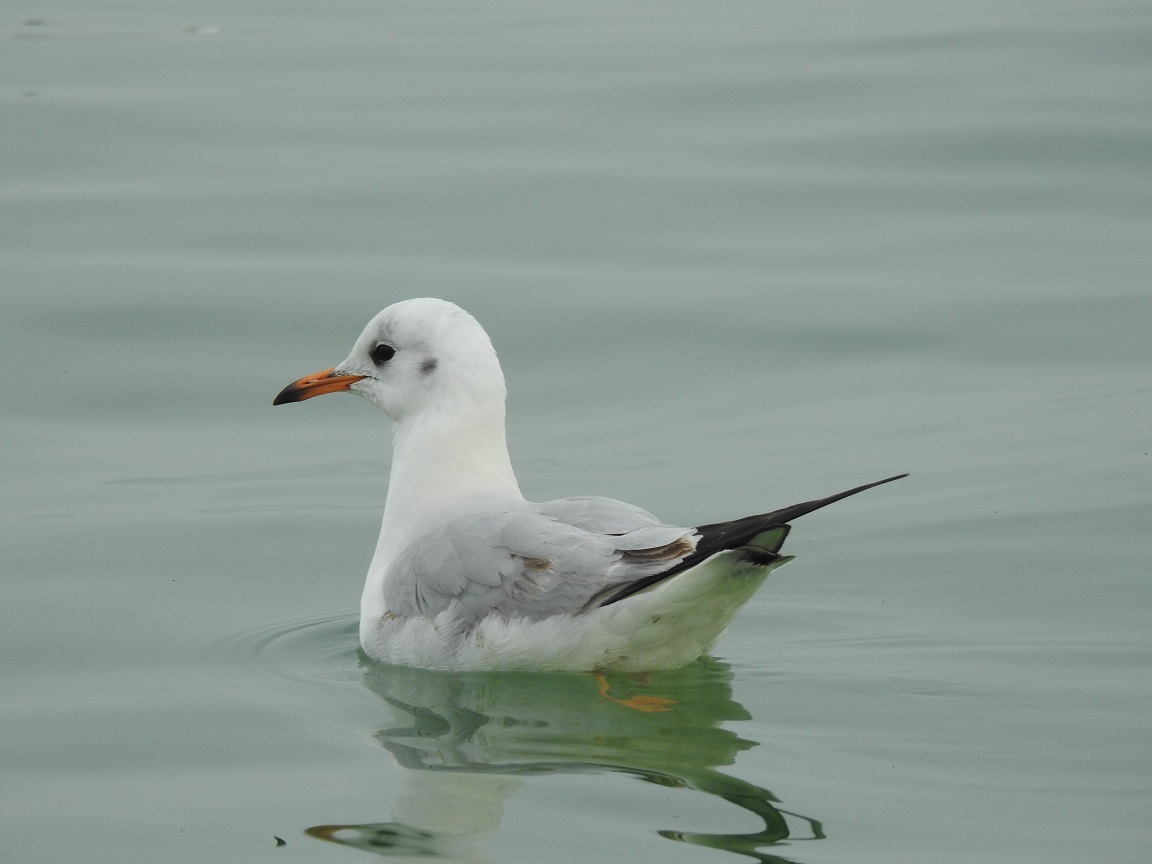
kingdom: Animalia
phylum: Chordata
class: Aves
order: Charadriiformes
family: Laridae
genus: Chroicocephalus
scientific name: Chroicocephalus ridibundus
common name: Black-headed gull
